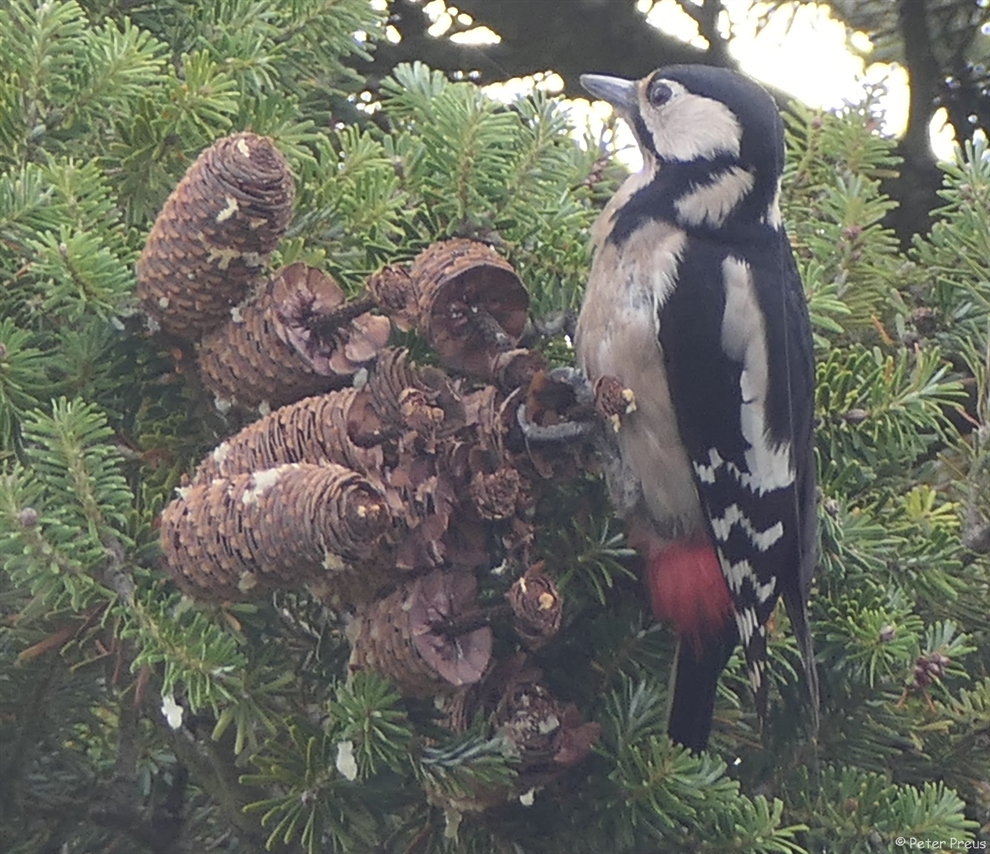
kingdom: Animalia
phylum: Chordata
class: Aves
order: Piciformes
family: Picidae
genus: Dendrocopos
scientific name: Dendrocopos major
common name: Great spotted woodpecker
